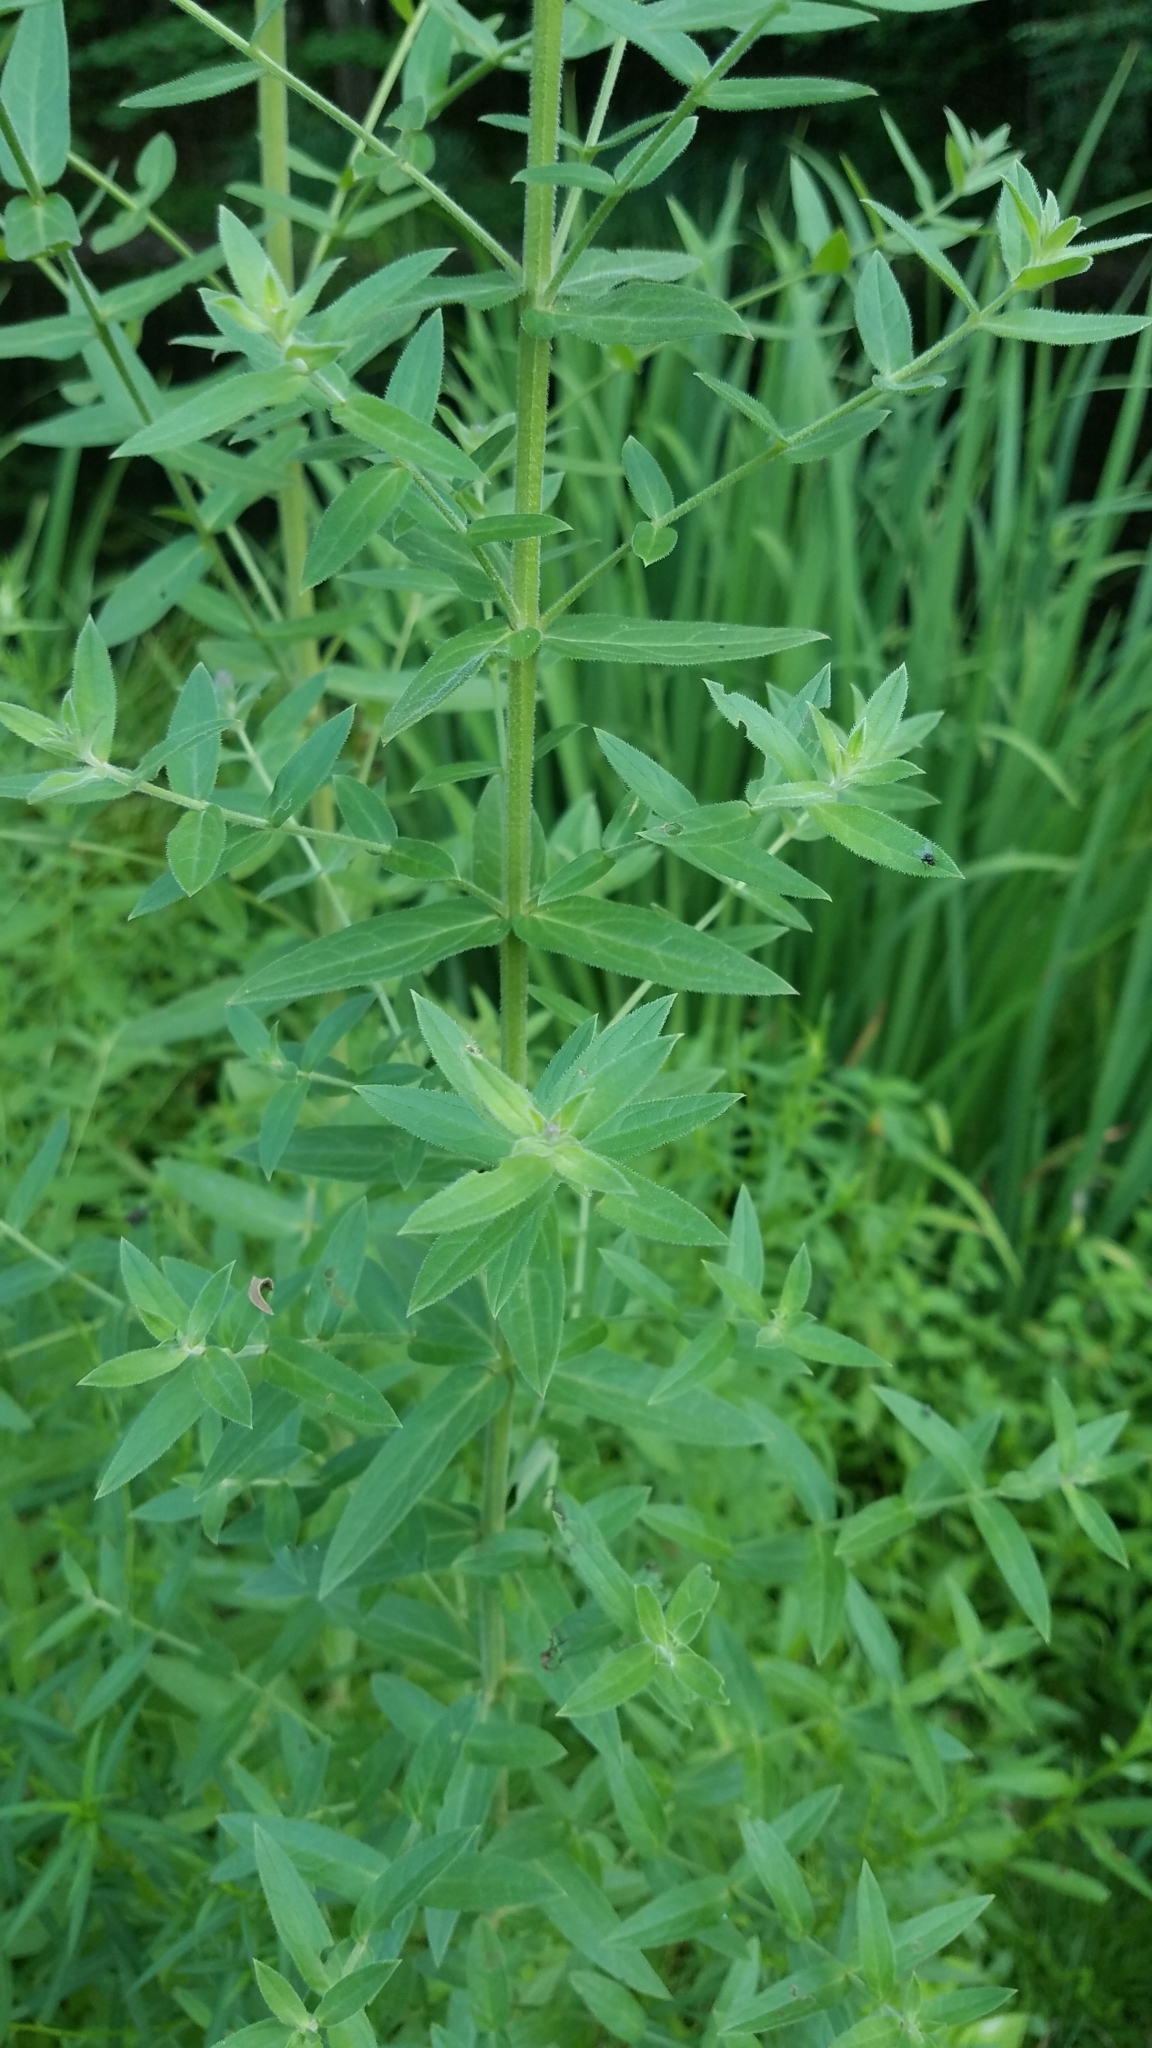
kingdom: Plantae
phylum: Tracheophyta
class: Magnoliopsida
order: Myrtales
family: Lythraceae
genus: Lythrum
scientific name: Lythrum salicaria
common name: Purple loosestrife
